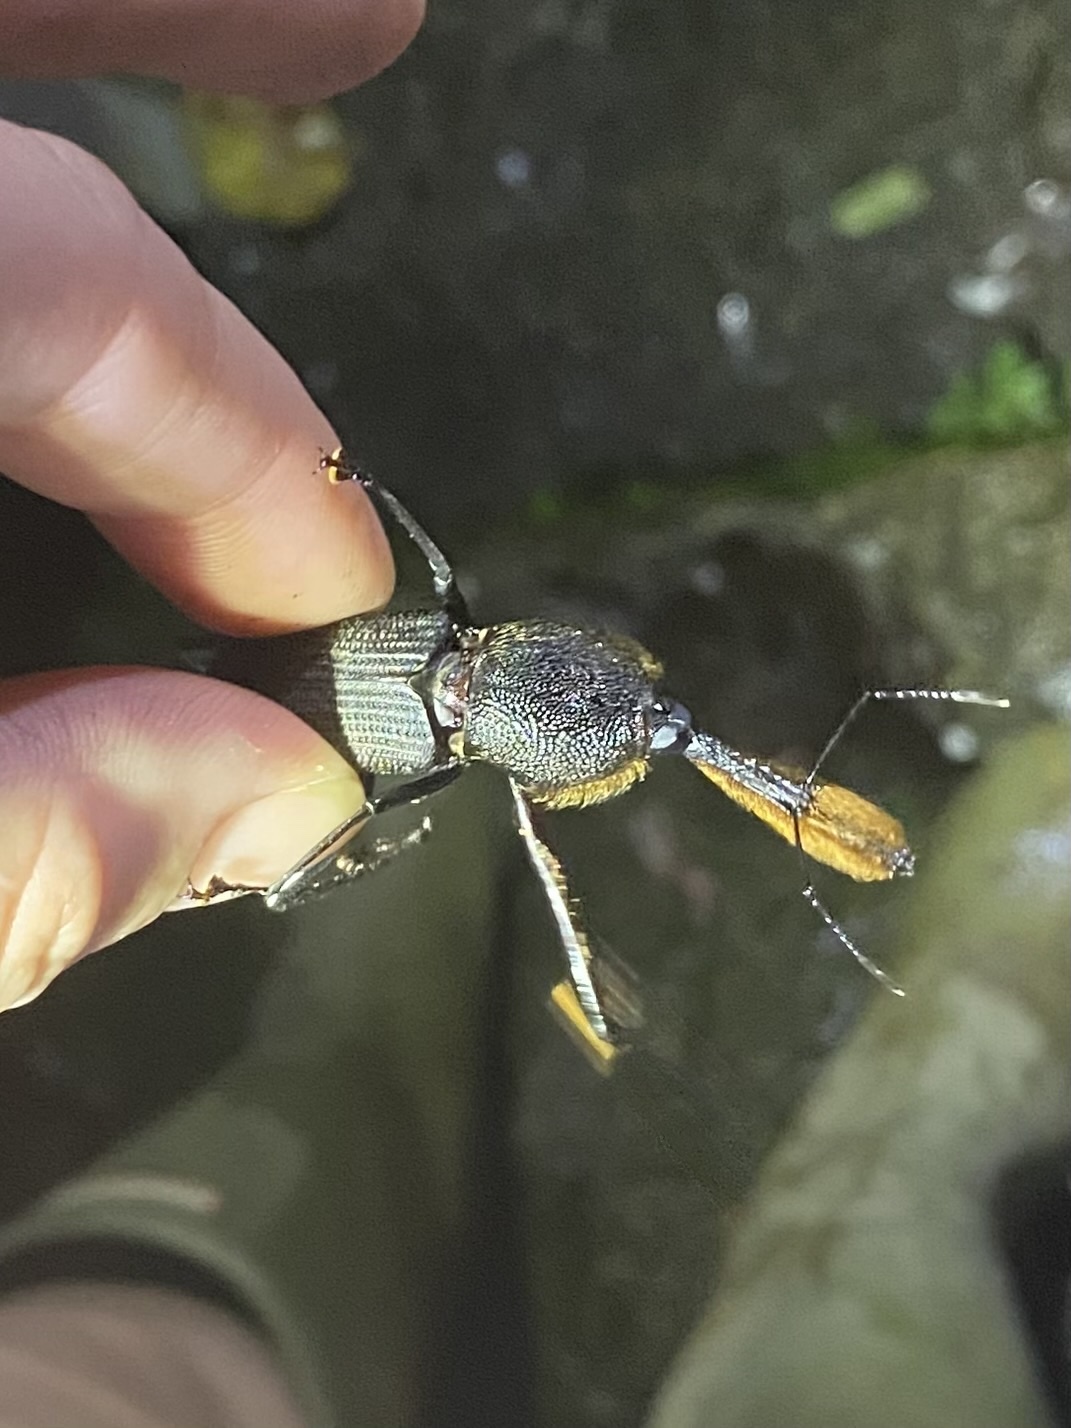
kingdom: Animalia
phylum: Arthropoda
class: Insecta
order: Coleoptera
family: Dryophthoridae
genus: Rhinostomus
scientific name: Rhinostomus barbirostris
